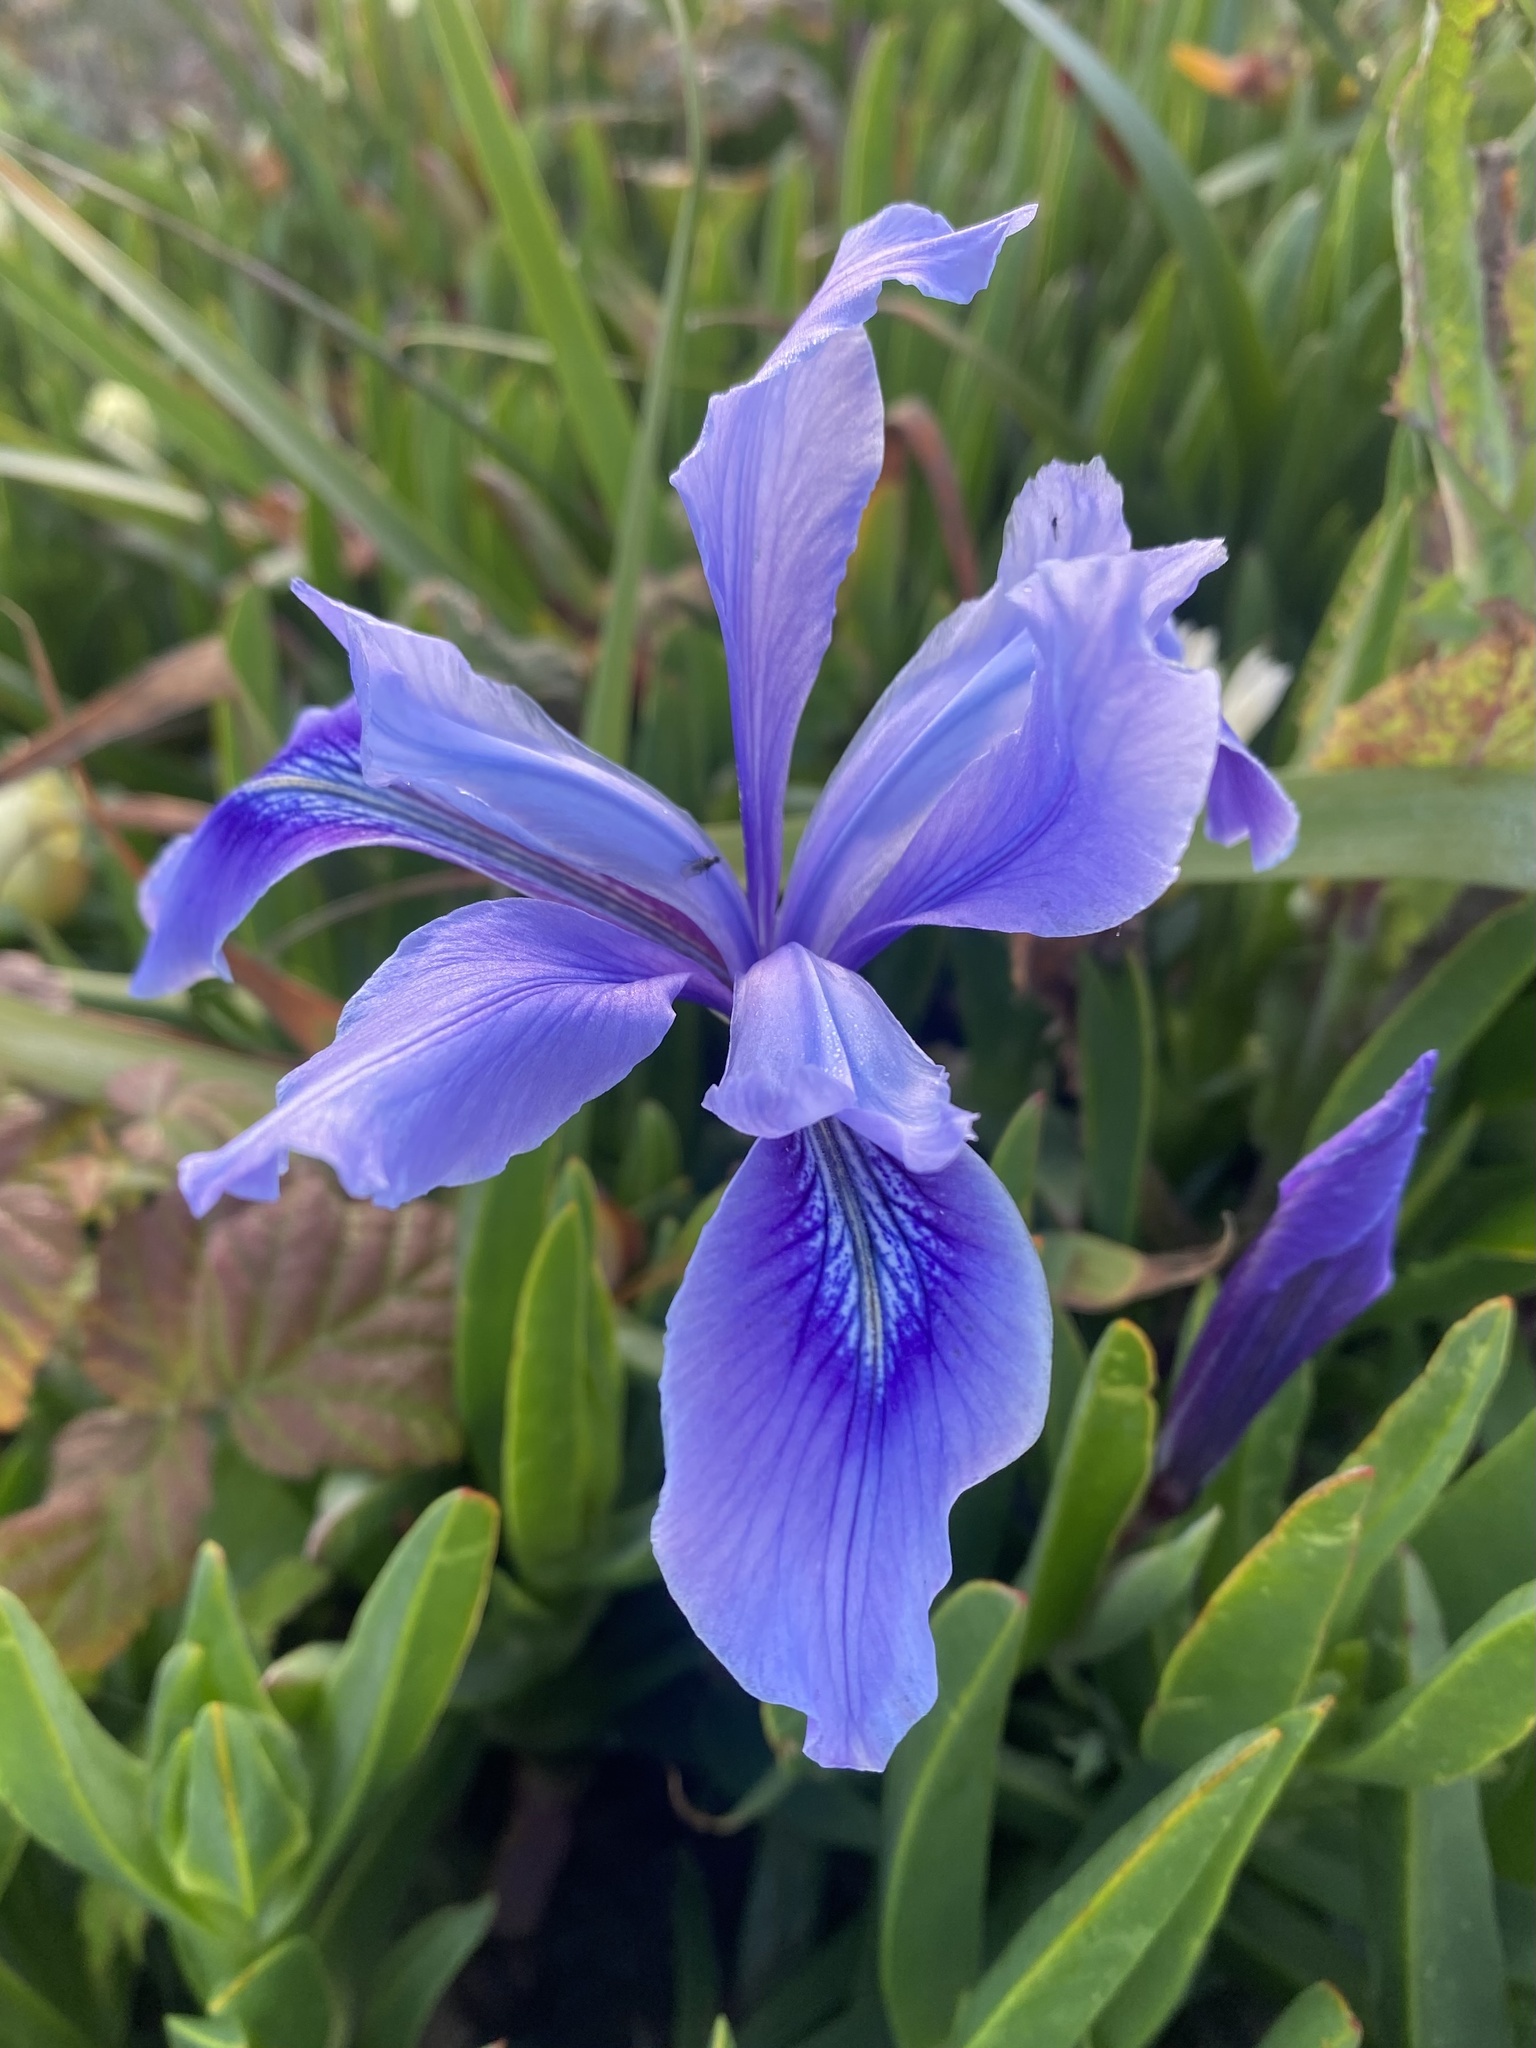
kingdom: Plantae
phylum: Tracheophyta
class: Liliopsida
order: Asparagales
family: Iridaceae
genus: Iris
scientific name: Iris douglasiana
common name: Marin iris
